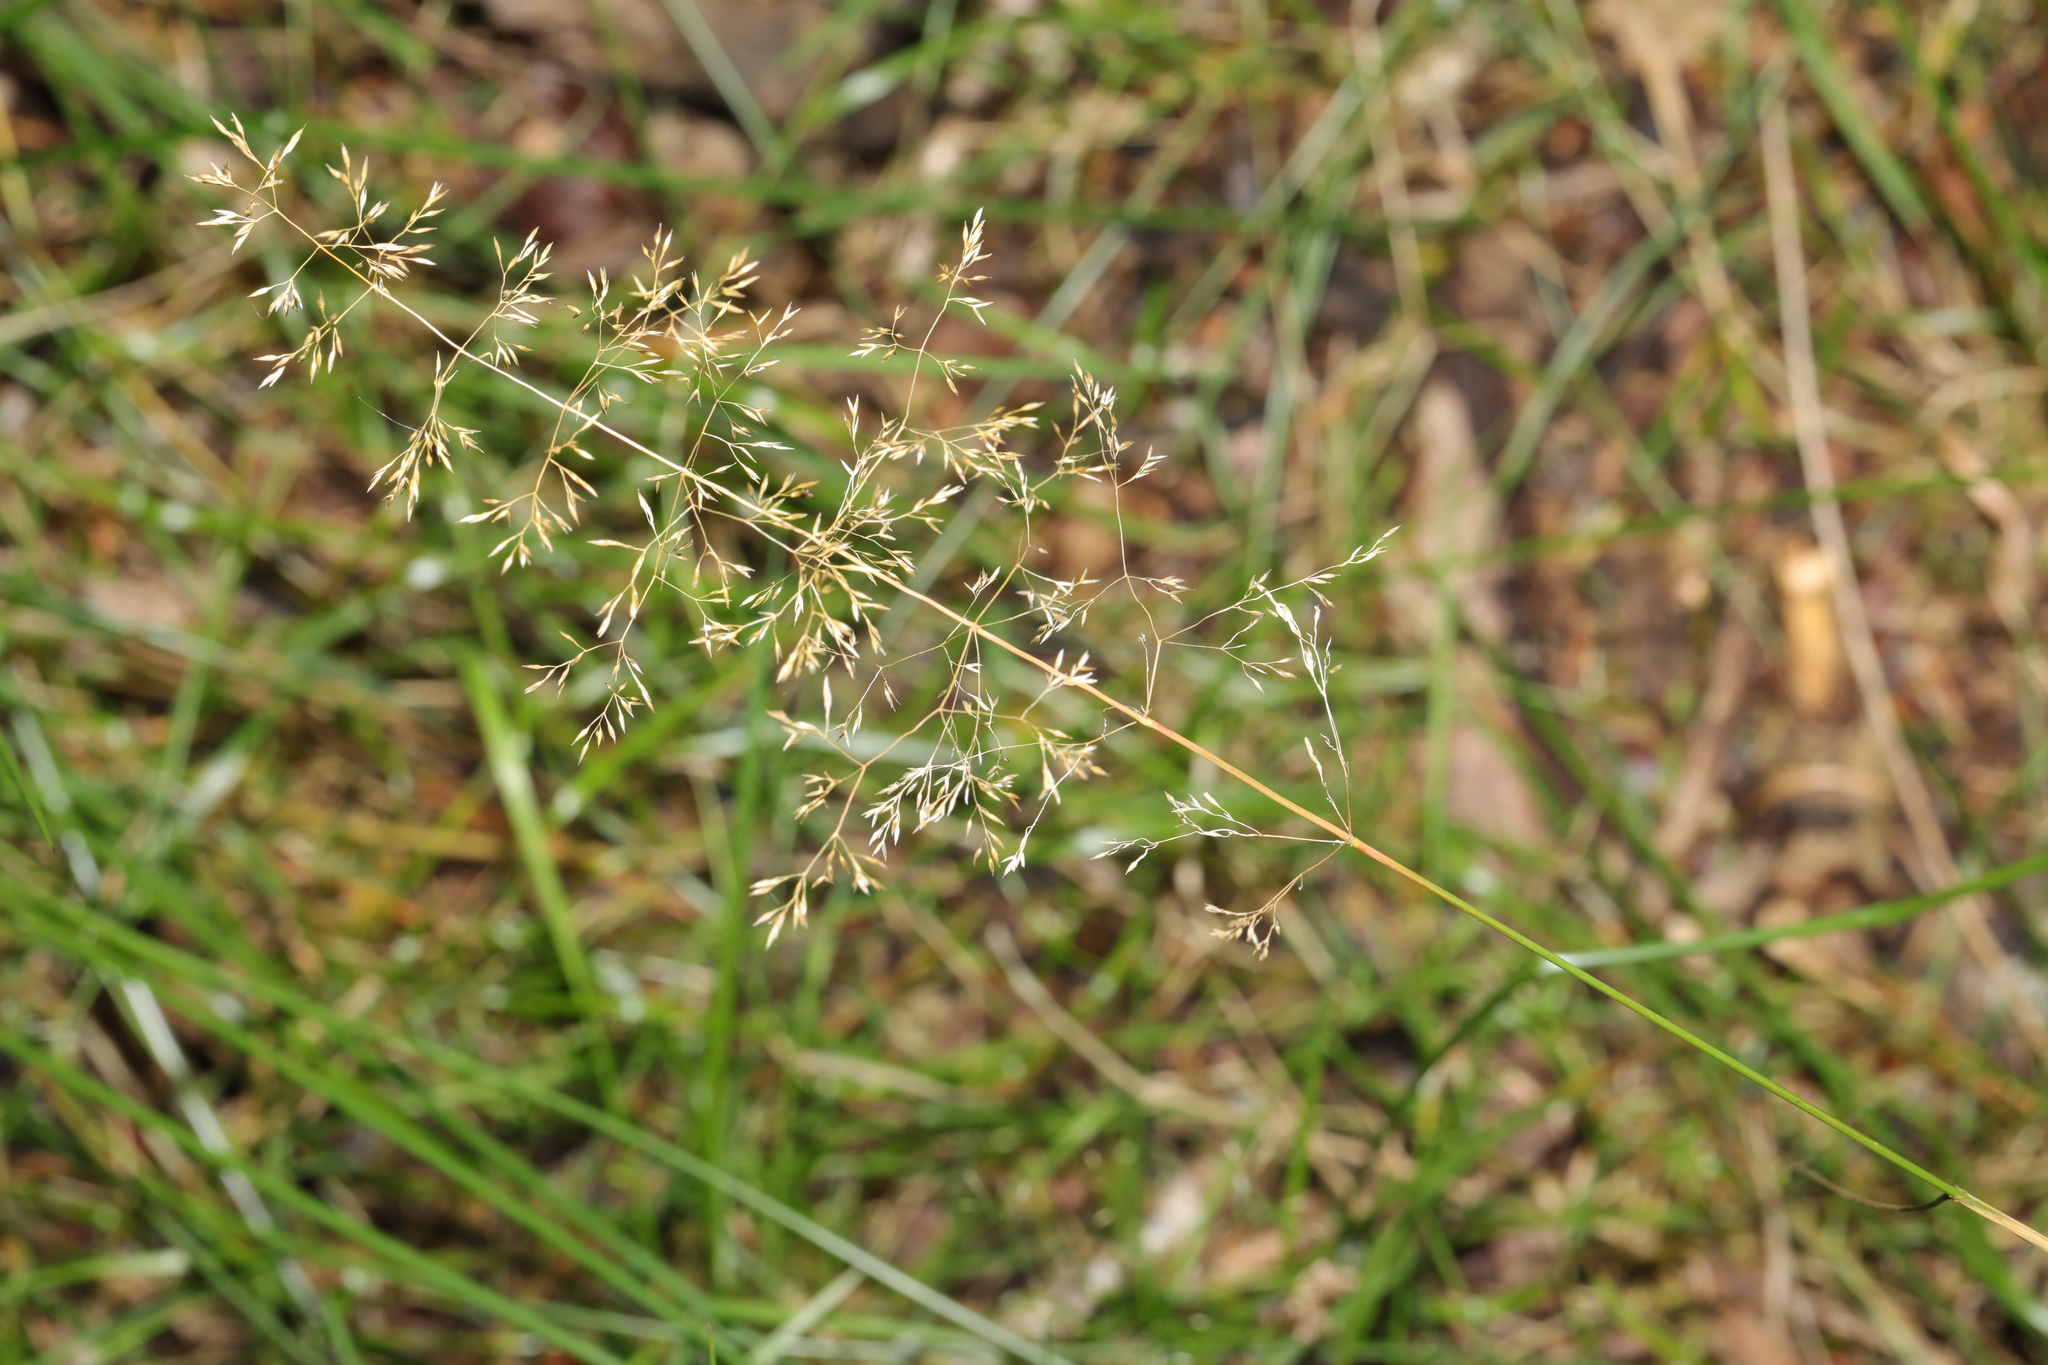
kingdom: Plantae
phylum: Tracheophyta
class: Liliopsida
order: Poales
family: Poaceae
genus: Agrostis
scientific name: Agrostis capillaris
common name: Colonial bentgrass
